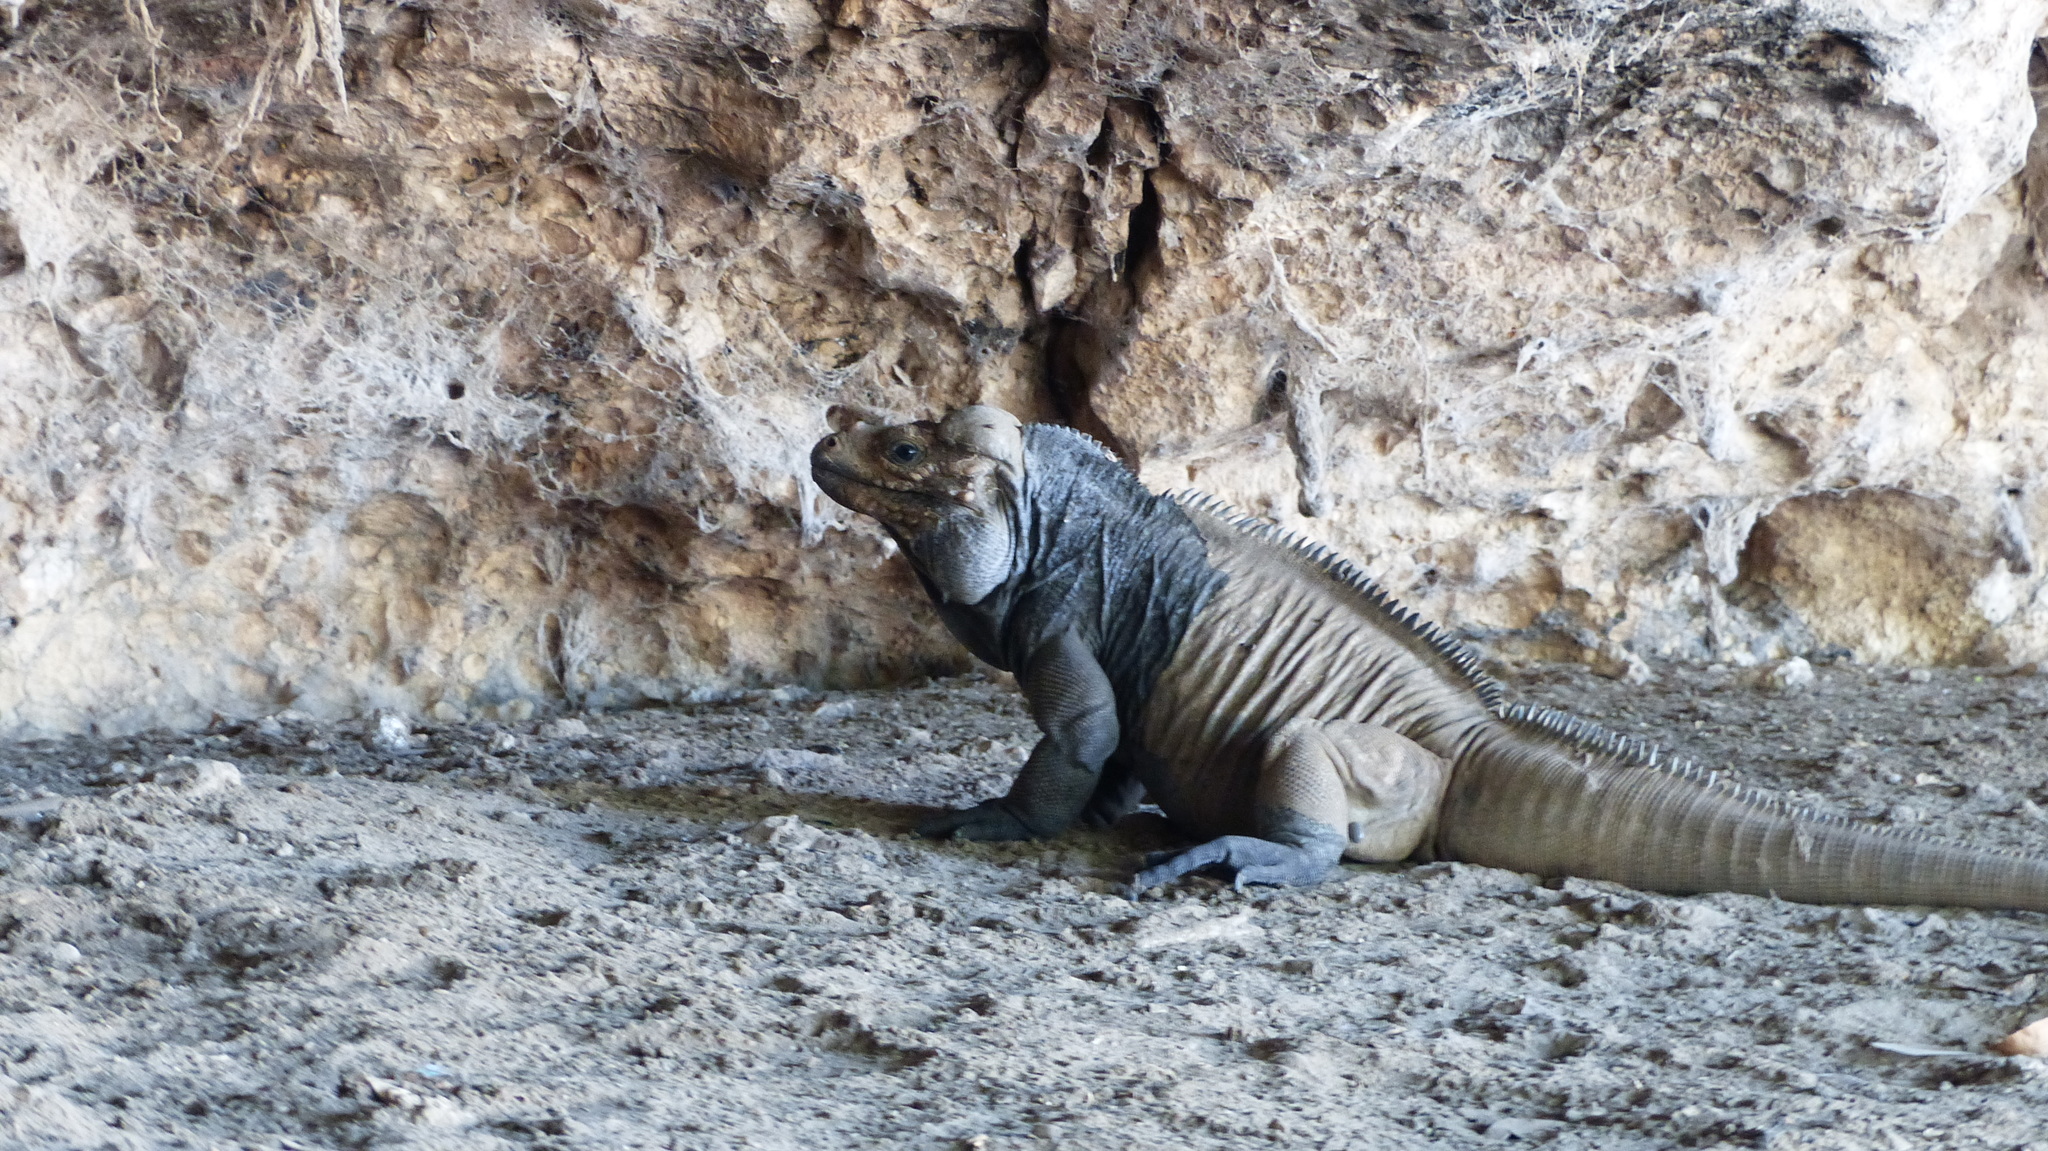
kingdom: Animalia
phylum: Chordata
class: Squamata
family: Iguanidae
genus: Cyclura
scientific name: Cyclura cornuta
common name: Hispaniolan rhinoceros iguana
